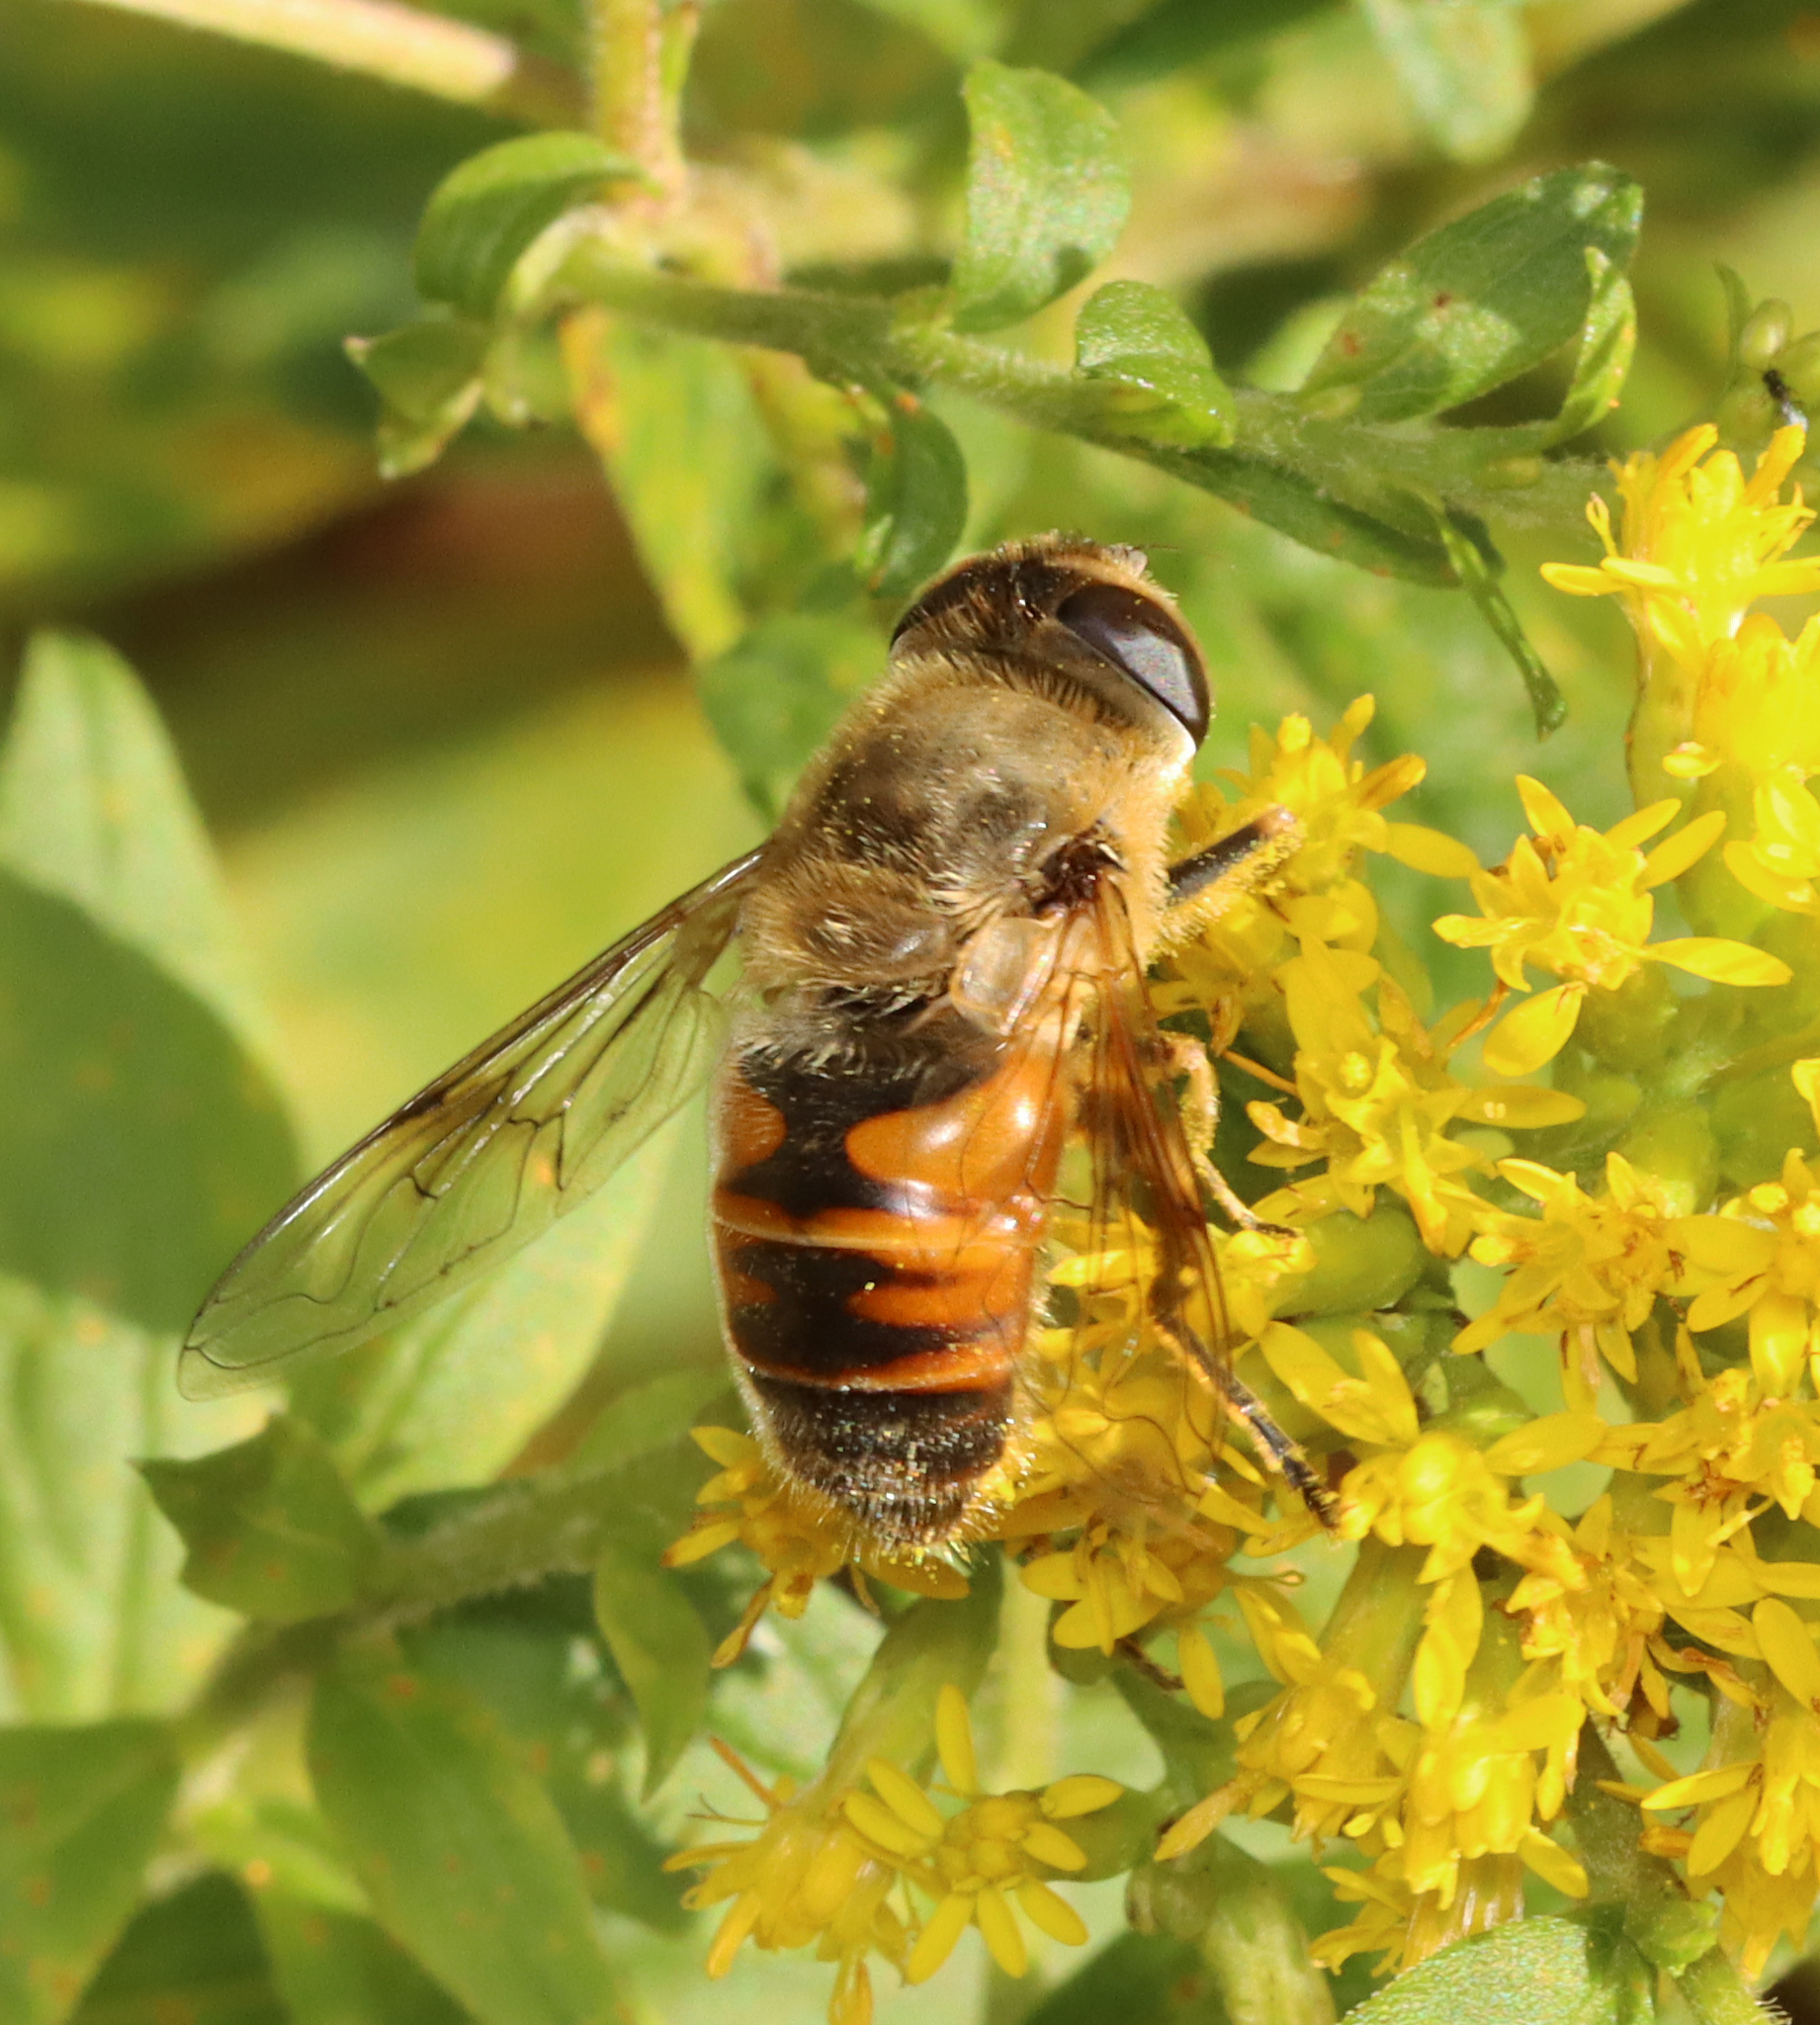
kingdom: Animalia
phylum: Arthropoda
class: Insecta
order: Diptera
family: Syrphidae
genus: Eristalis
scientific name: Eristalis tenax
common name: Drone fly
